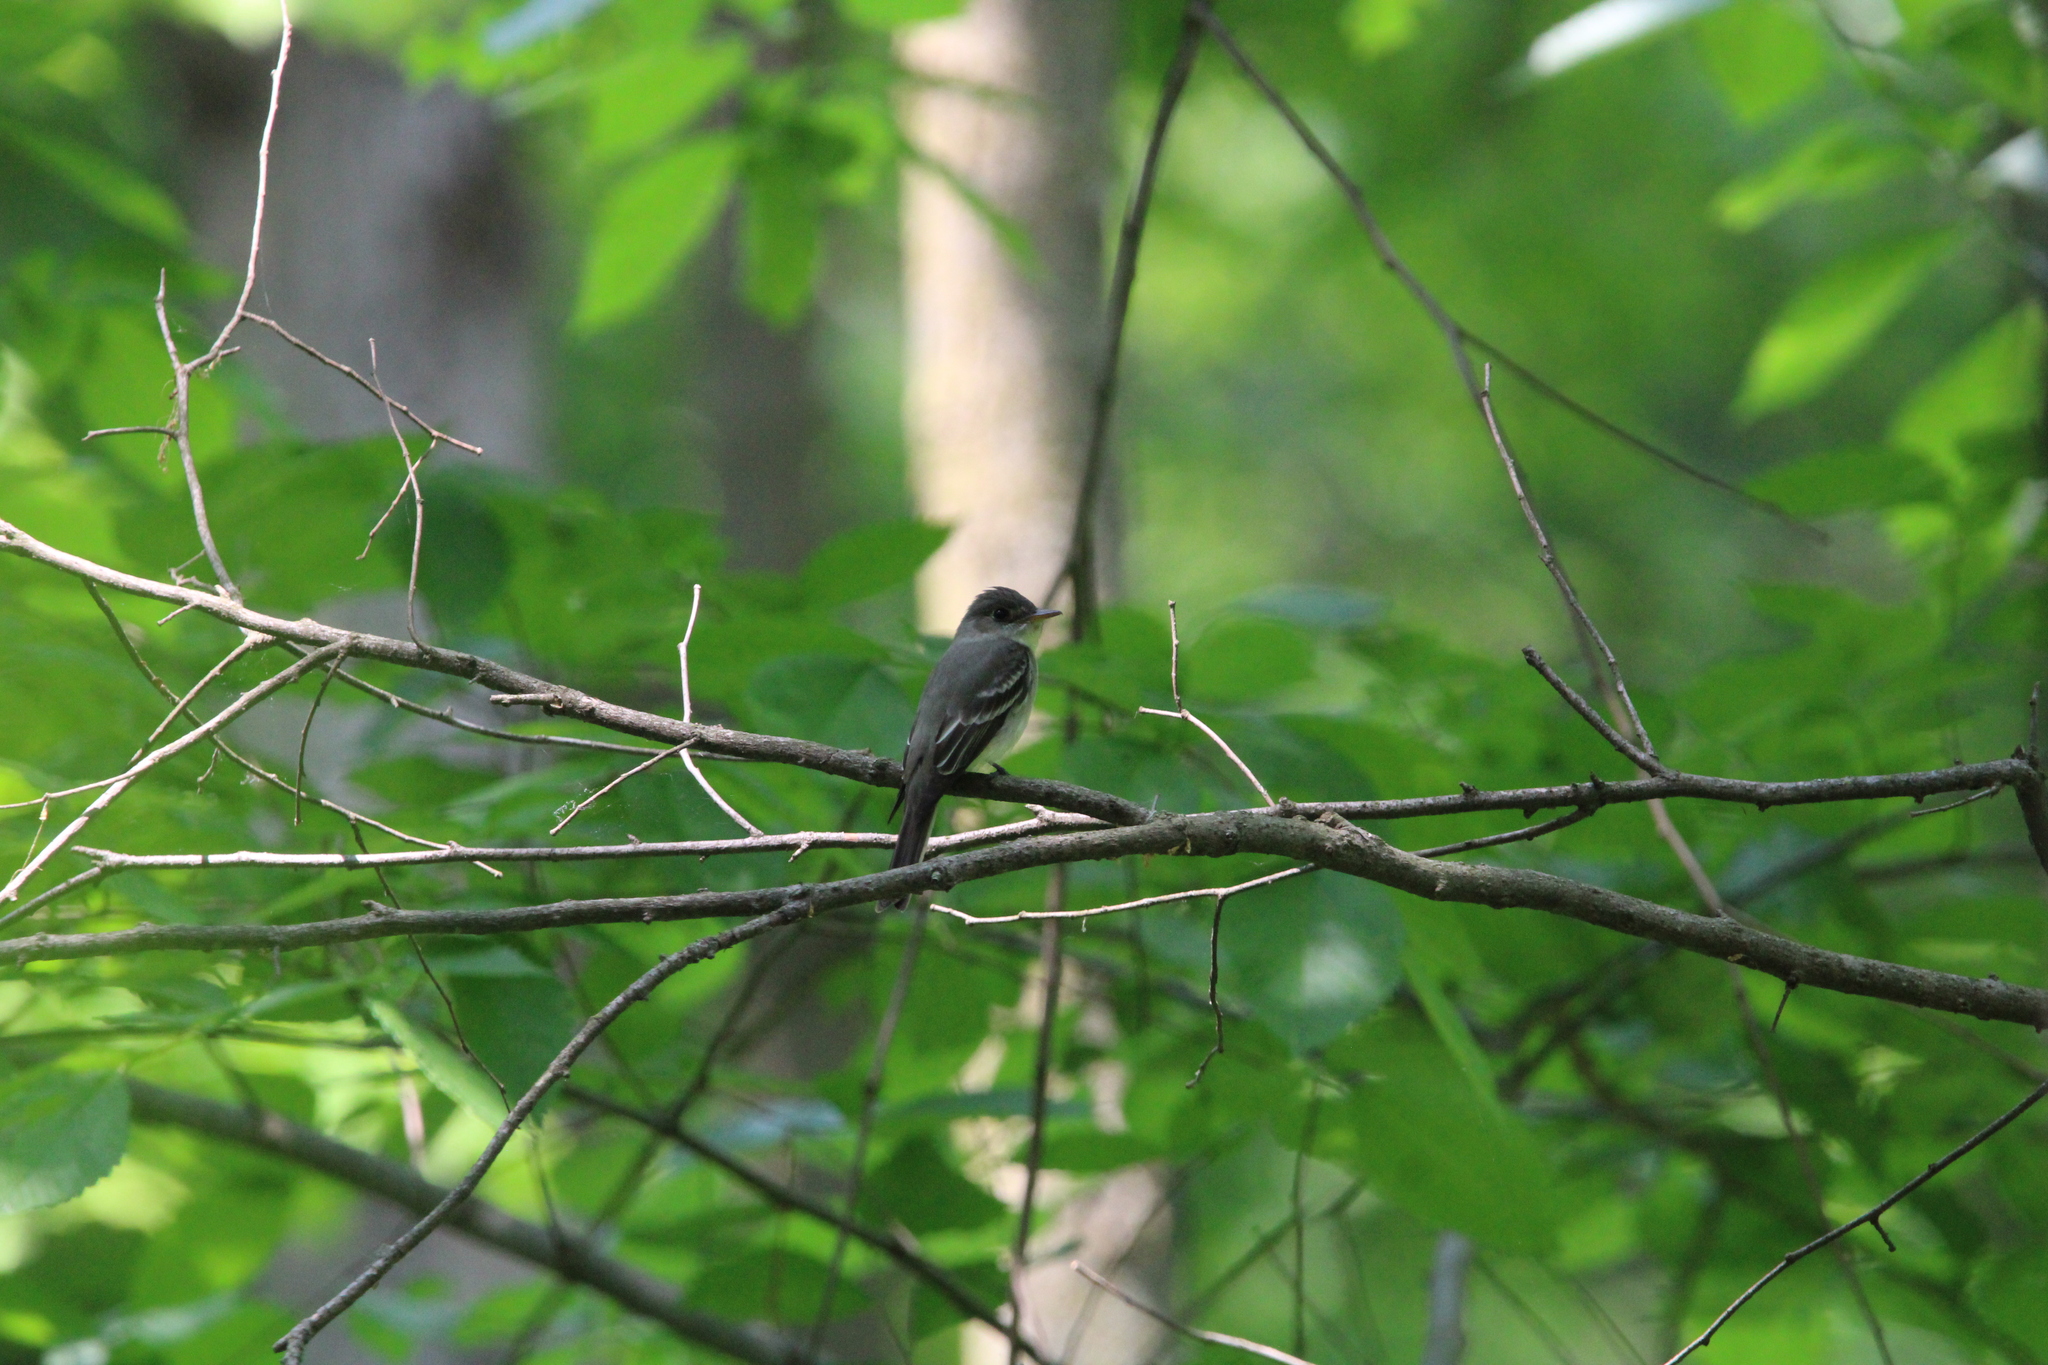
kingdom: Animalia
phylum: Chordata
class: Aves
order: Passeriformes
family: Tyrannidae
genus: Contopus
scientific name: Contopus virens
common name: Eastern wood-pewee
